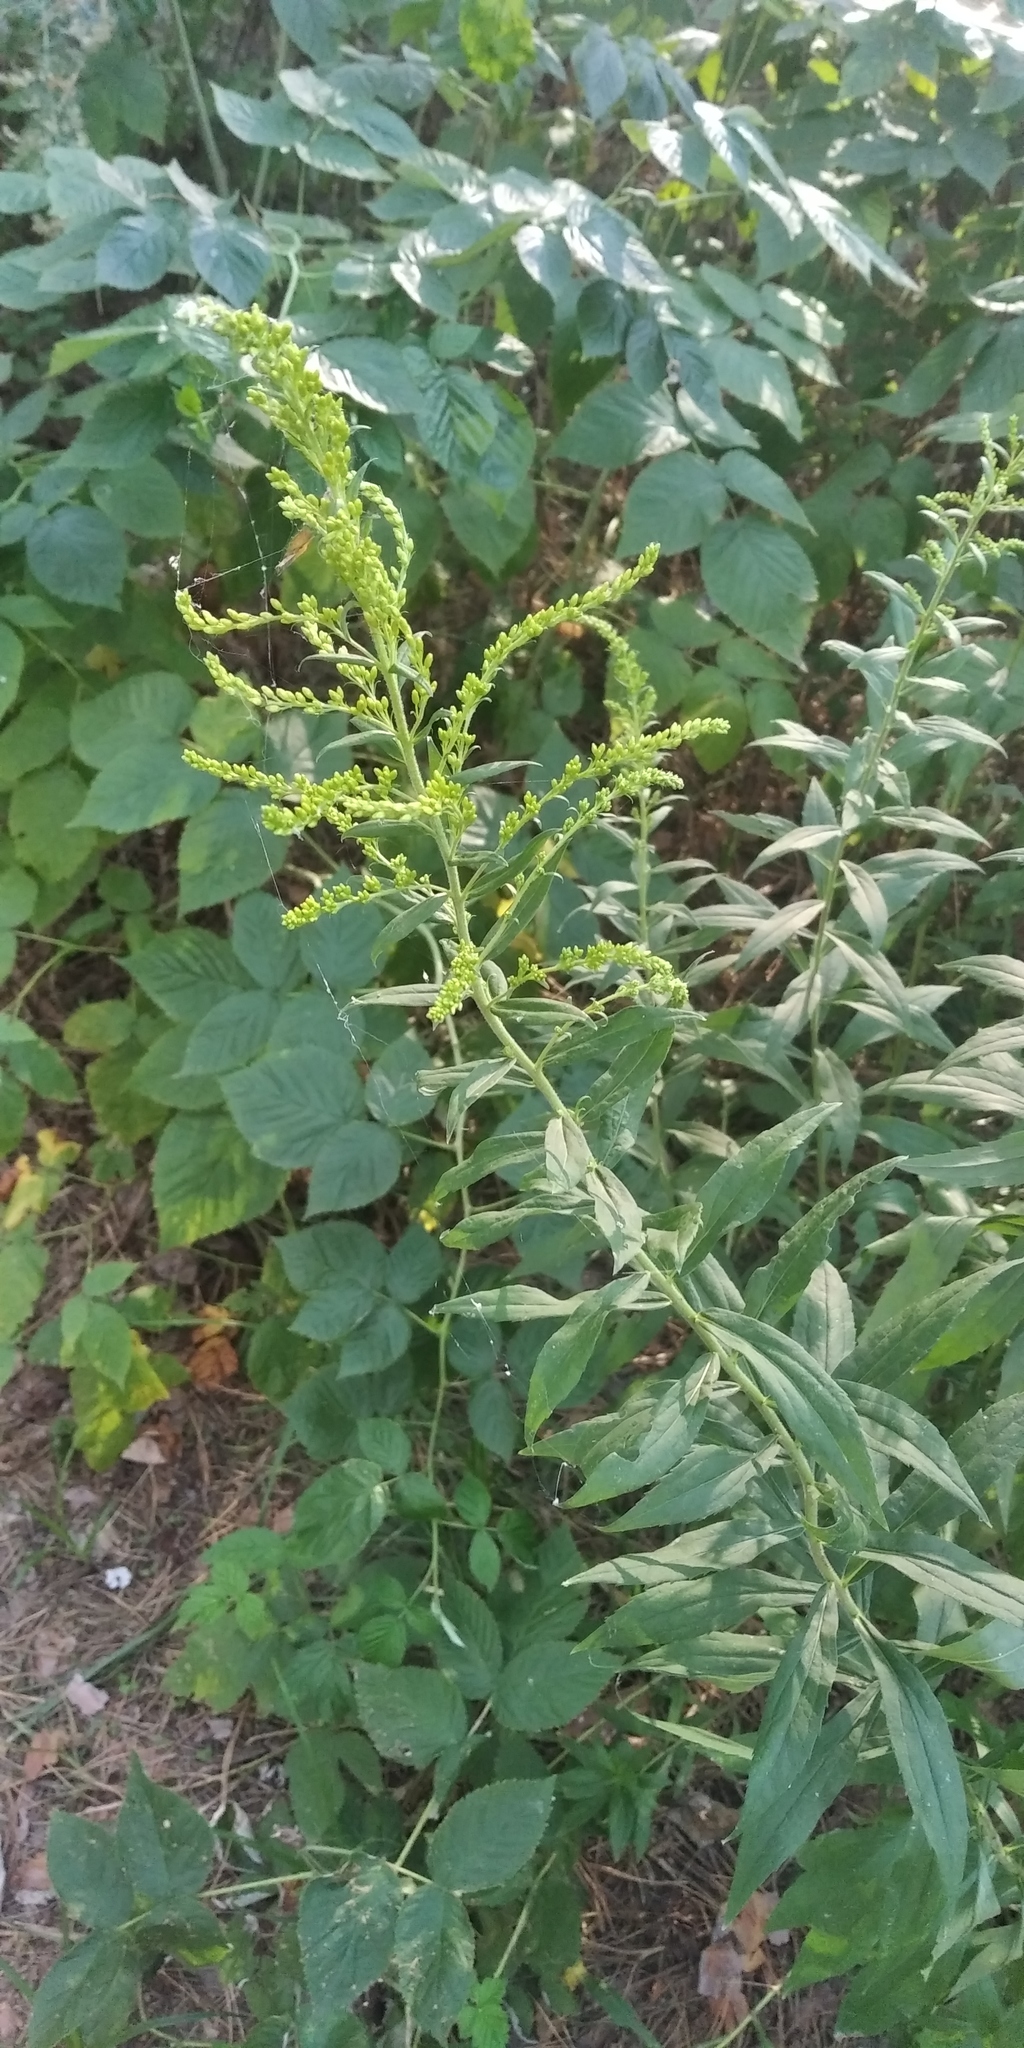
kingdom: Plantae
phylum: Tracheophyta
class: Magnoliopsida
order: Asterales
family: Asteraceae
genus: Solidago
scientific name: Solidago canadensis
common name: Canada goldenrod
